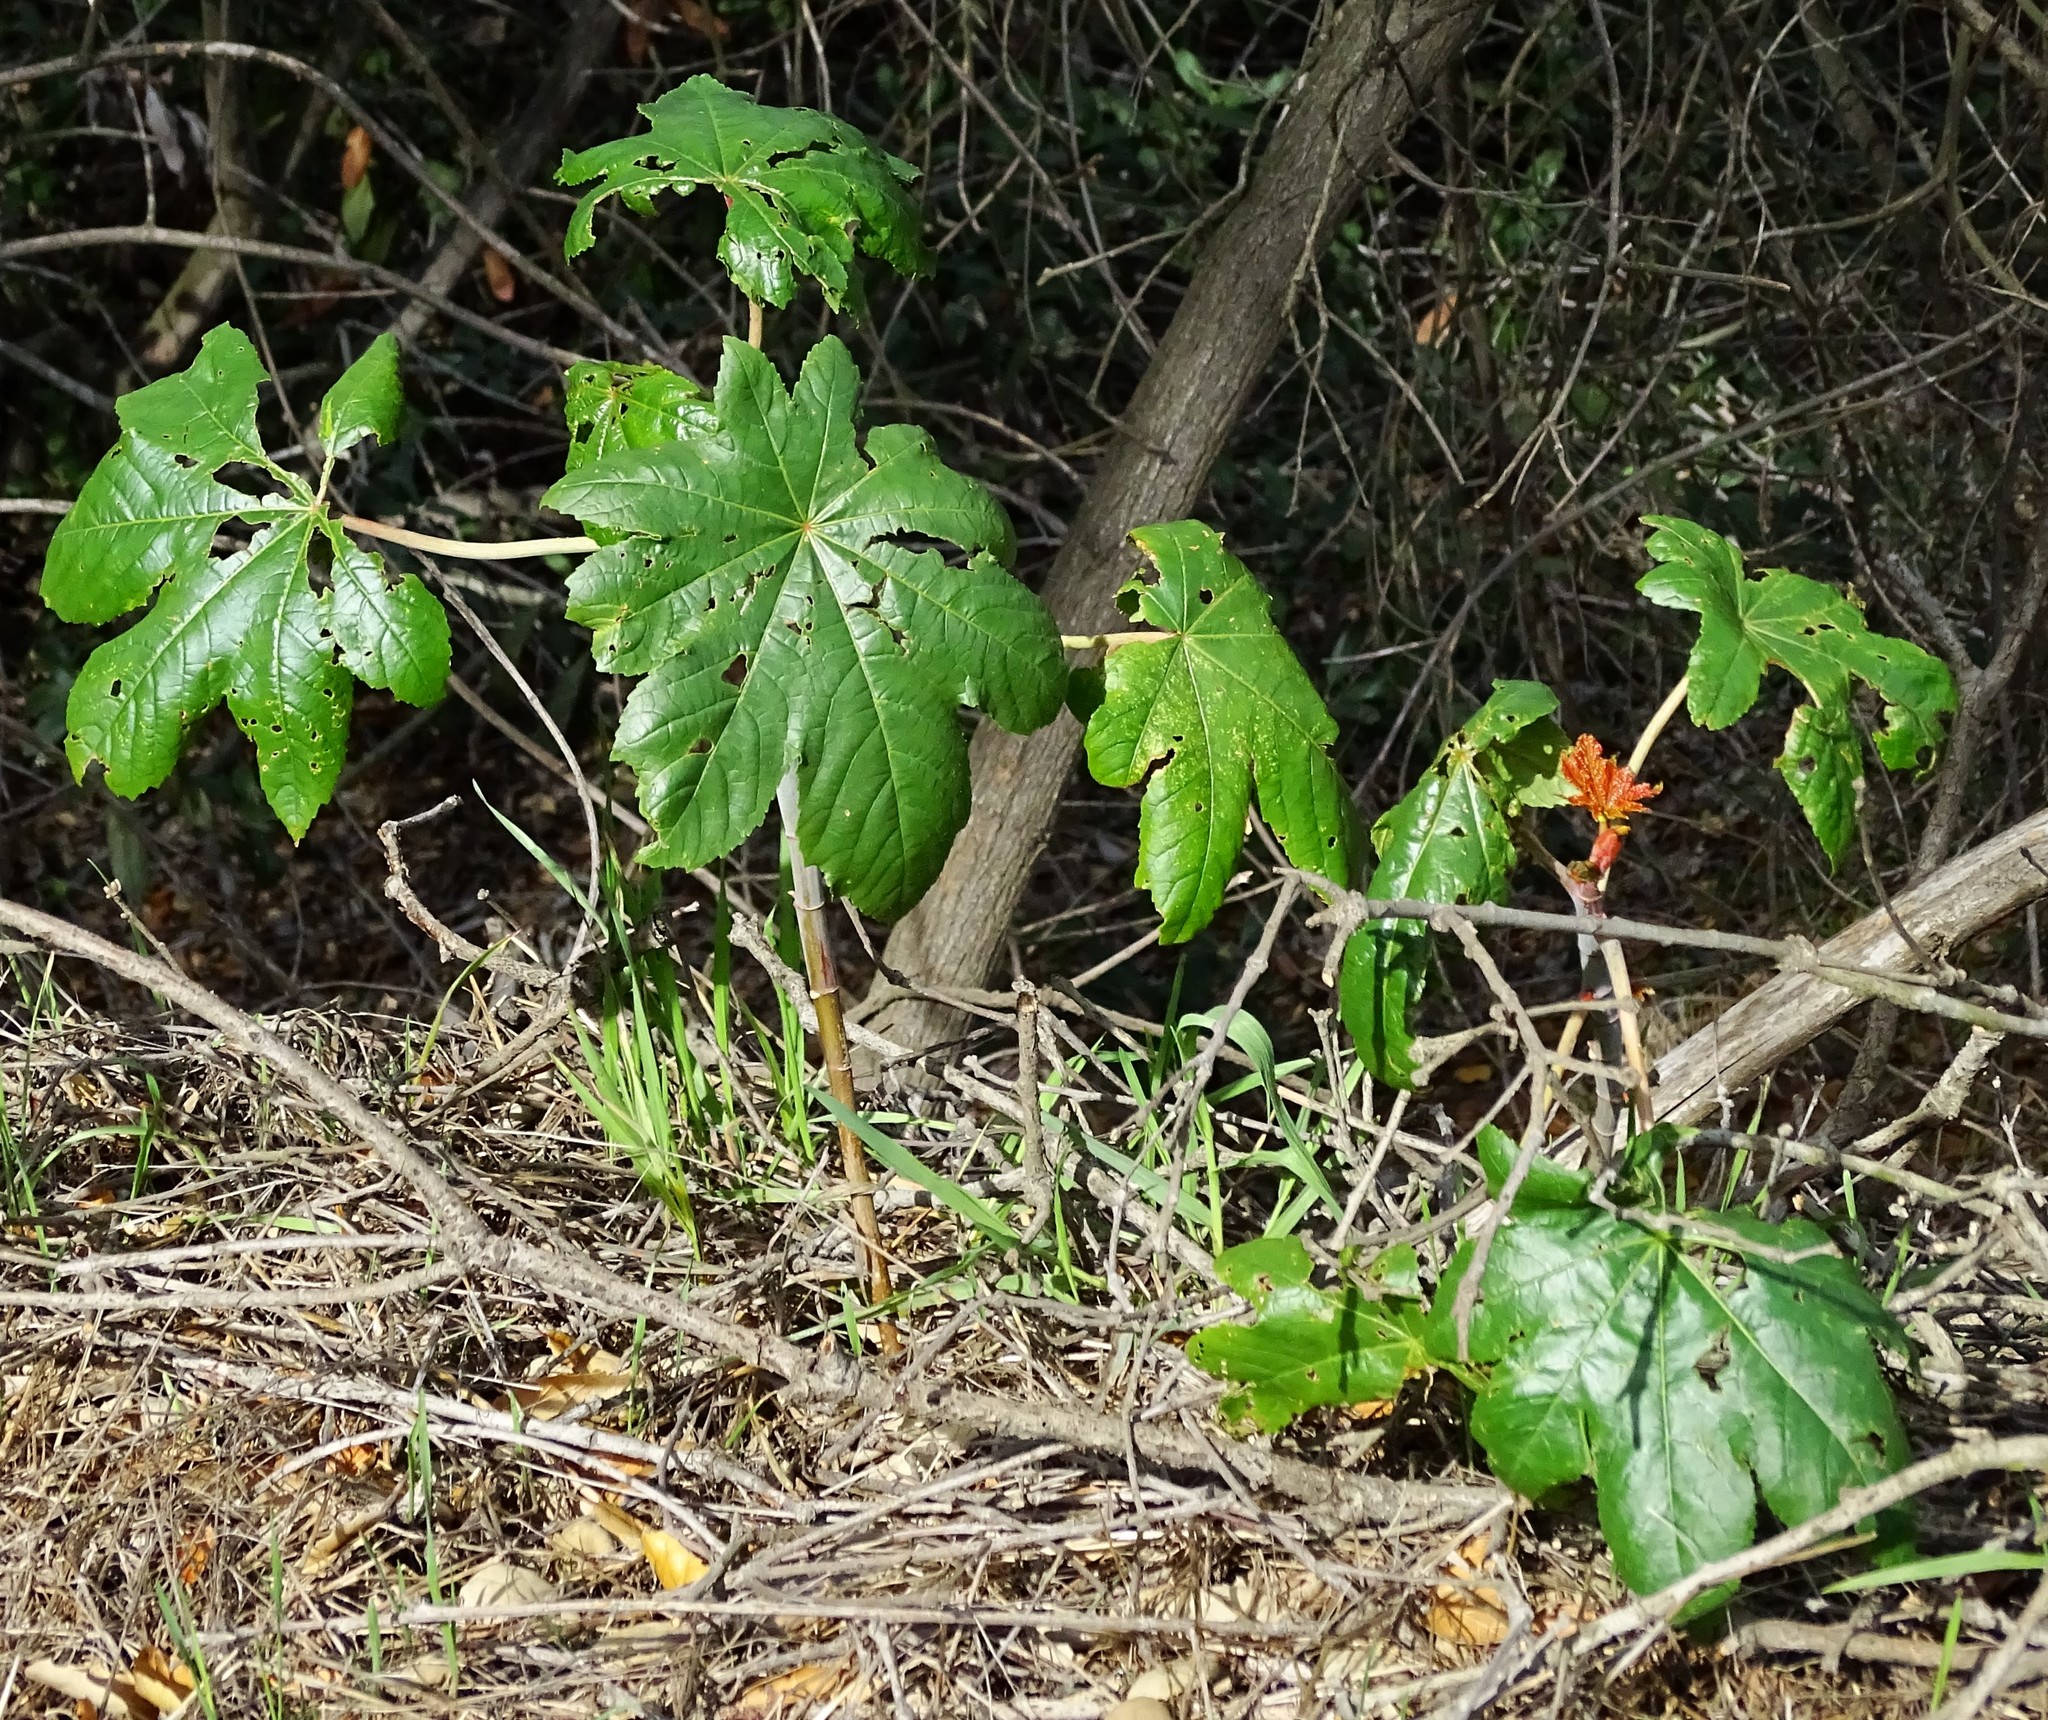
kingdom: Plantae
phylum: Tracheophyta
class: Magnoliopsida
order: Malpighiales
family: Euphorbiaceae
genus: Ricinus
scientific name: Ricinus communis
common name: Castor-oil-plant
